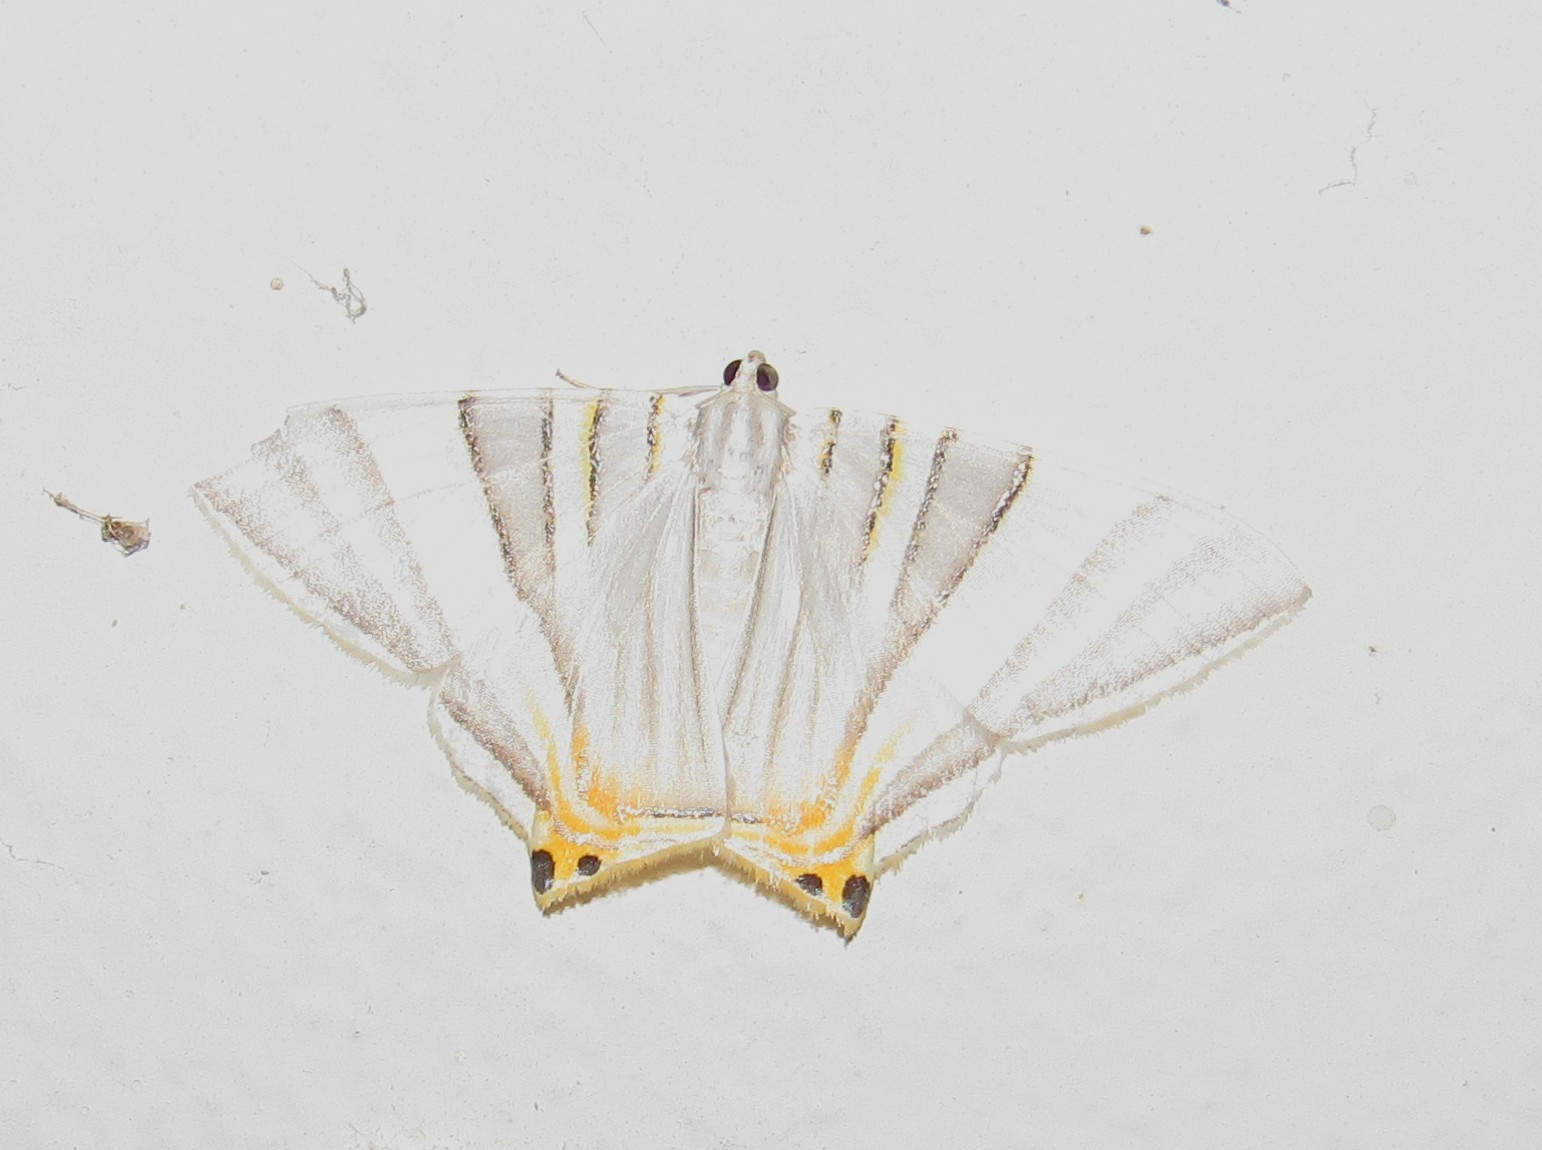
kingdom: Animalia
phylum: Arthropoda
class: Insecta
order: Lepidoptera
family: Geometridae
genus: Phrygionis
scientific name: Phrygionis platinata
